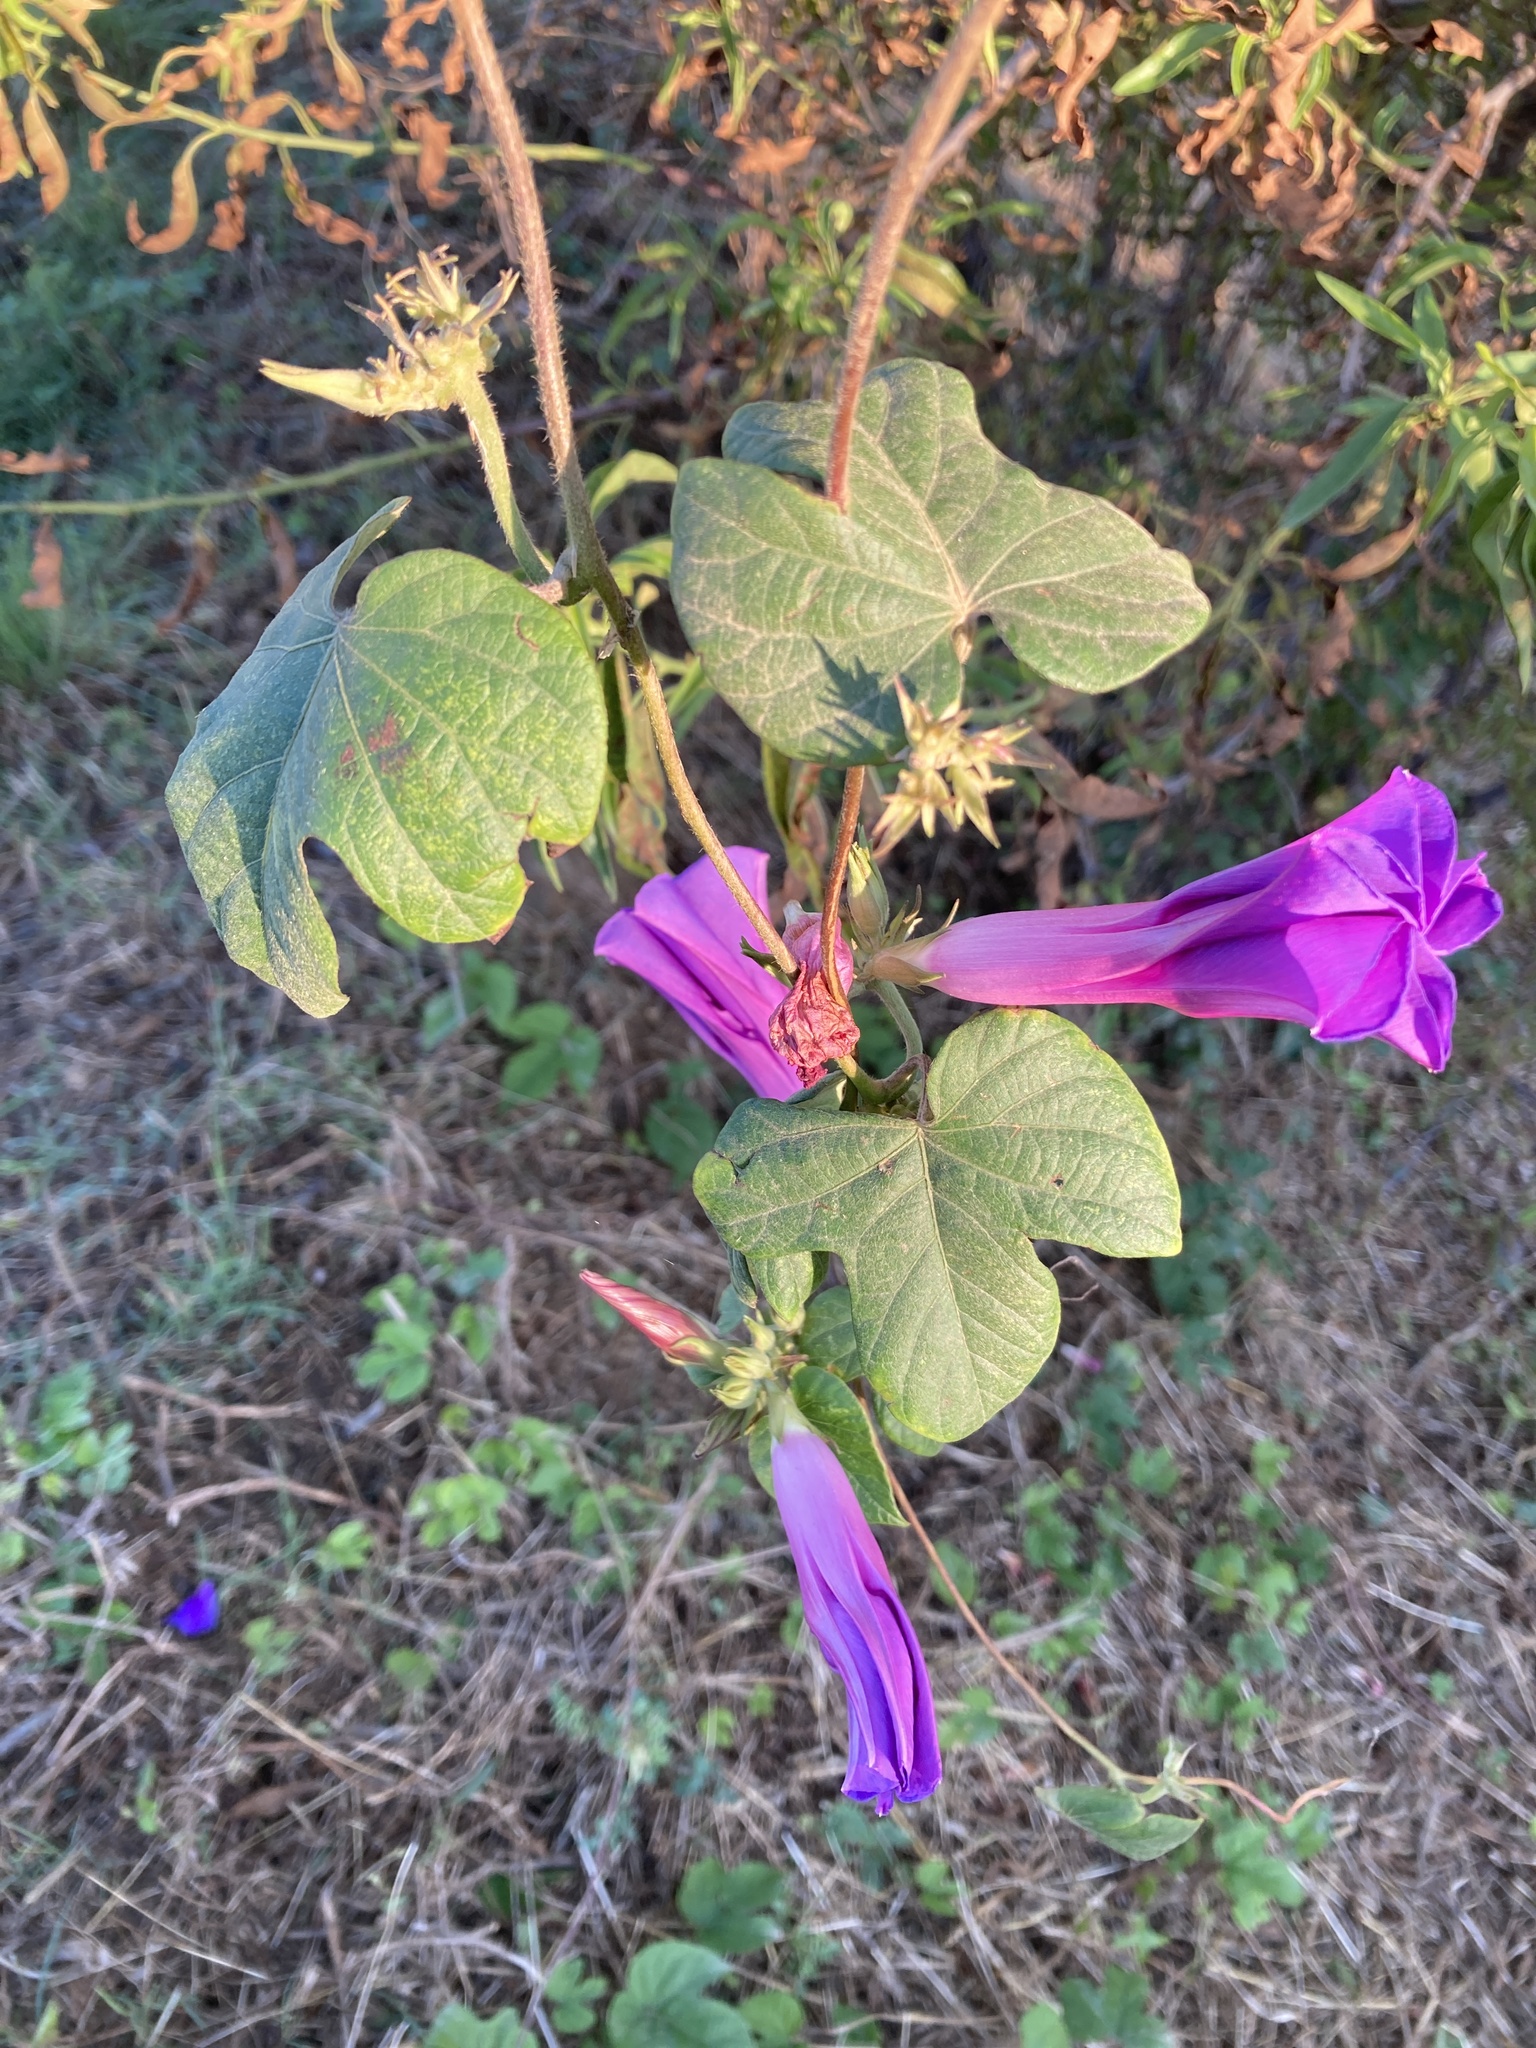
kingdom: Plantae
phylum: Tracheophyta
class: Magnoliopsida
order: Solanales
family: Convolvulaceae
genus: Ipomoea
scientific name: Ipomoea indica
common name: Blue dawnflower
